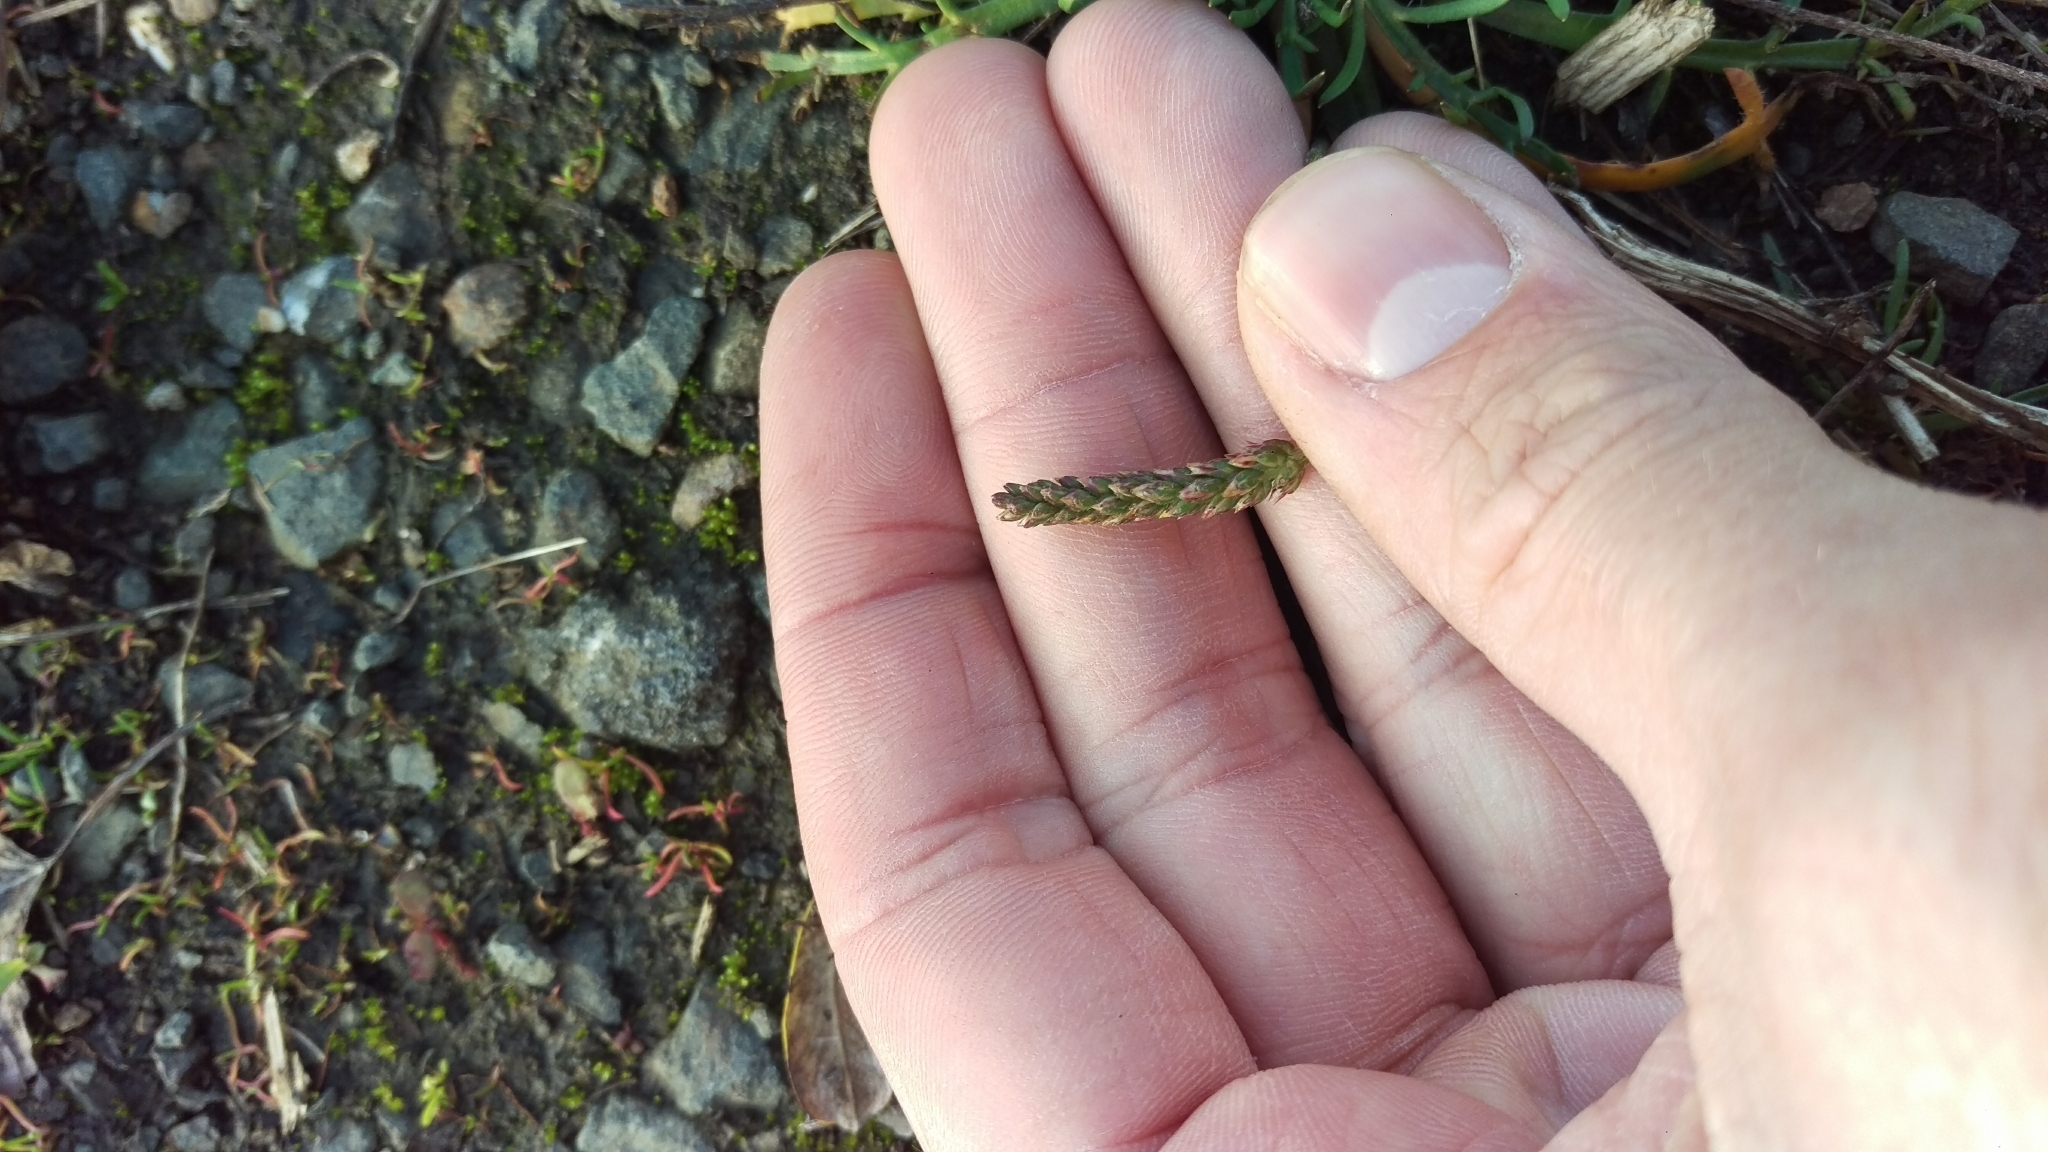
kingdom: Plantae
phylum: Tracheophyta
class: Magnoliopsida
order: Lamiales
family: Plantaginaceae
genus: Plantago
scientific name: Plantago coronopus
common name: Buck's-horn plantain
